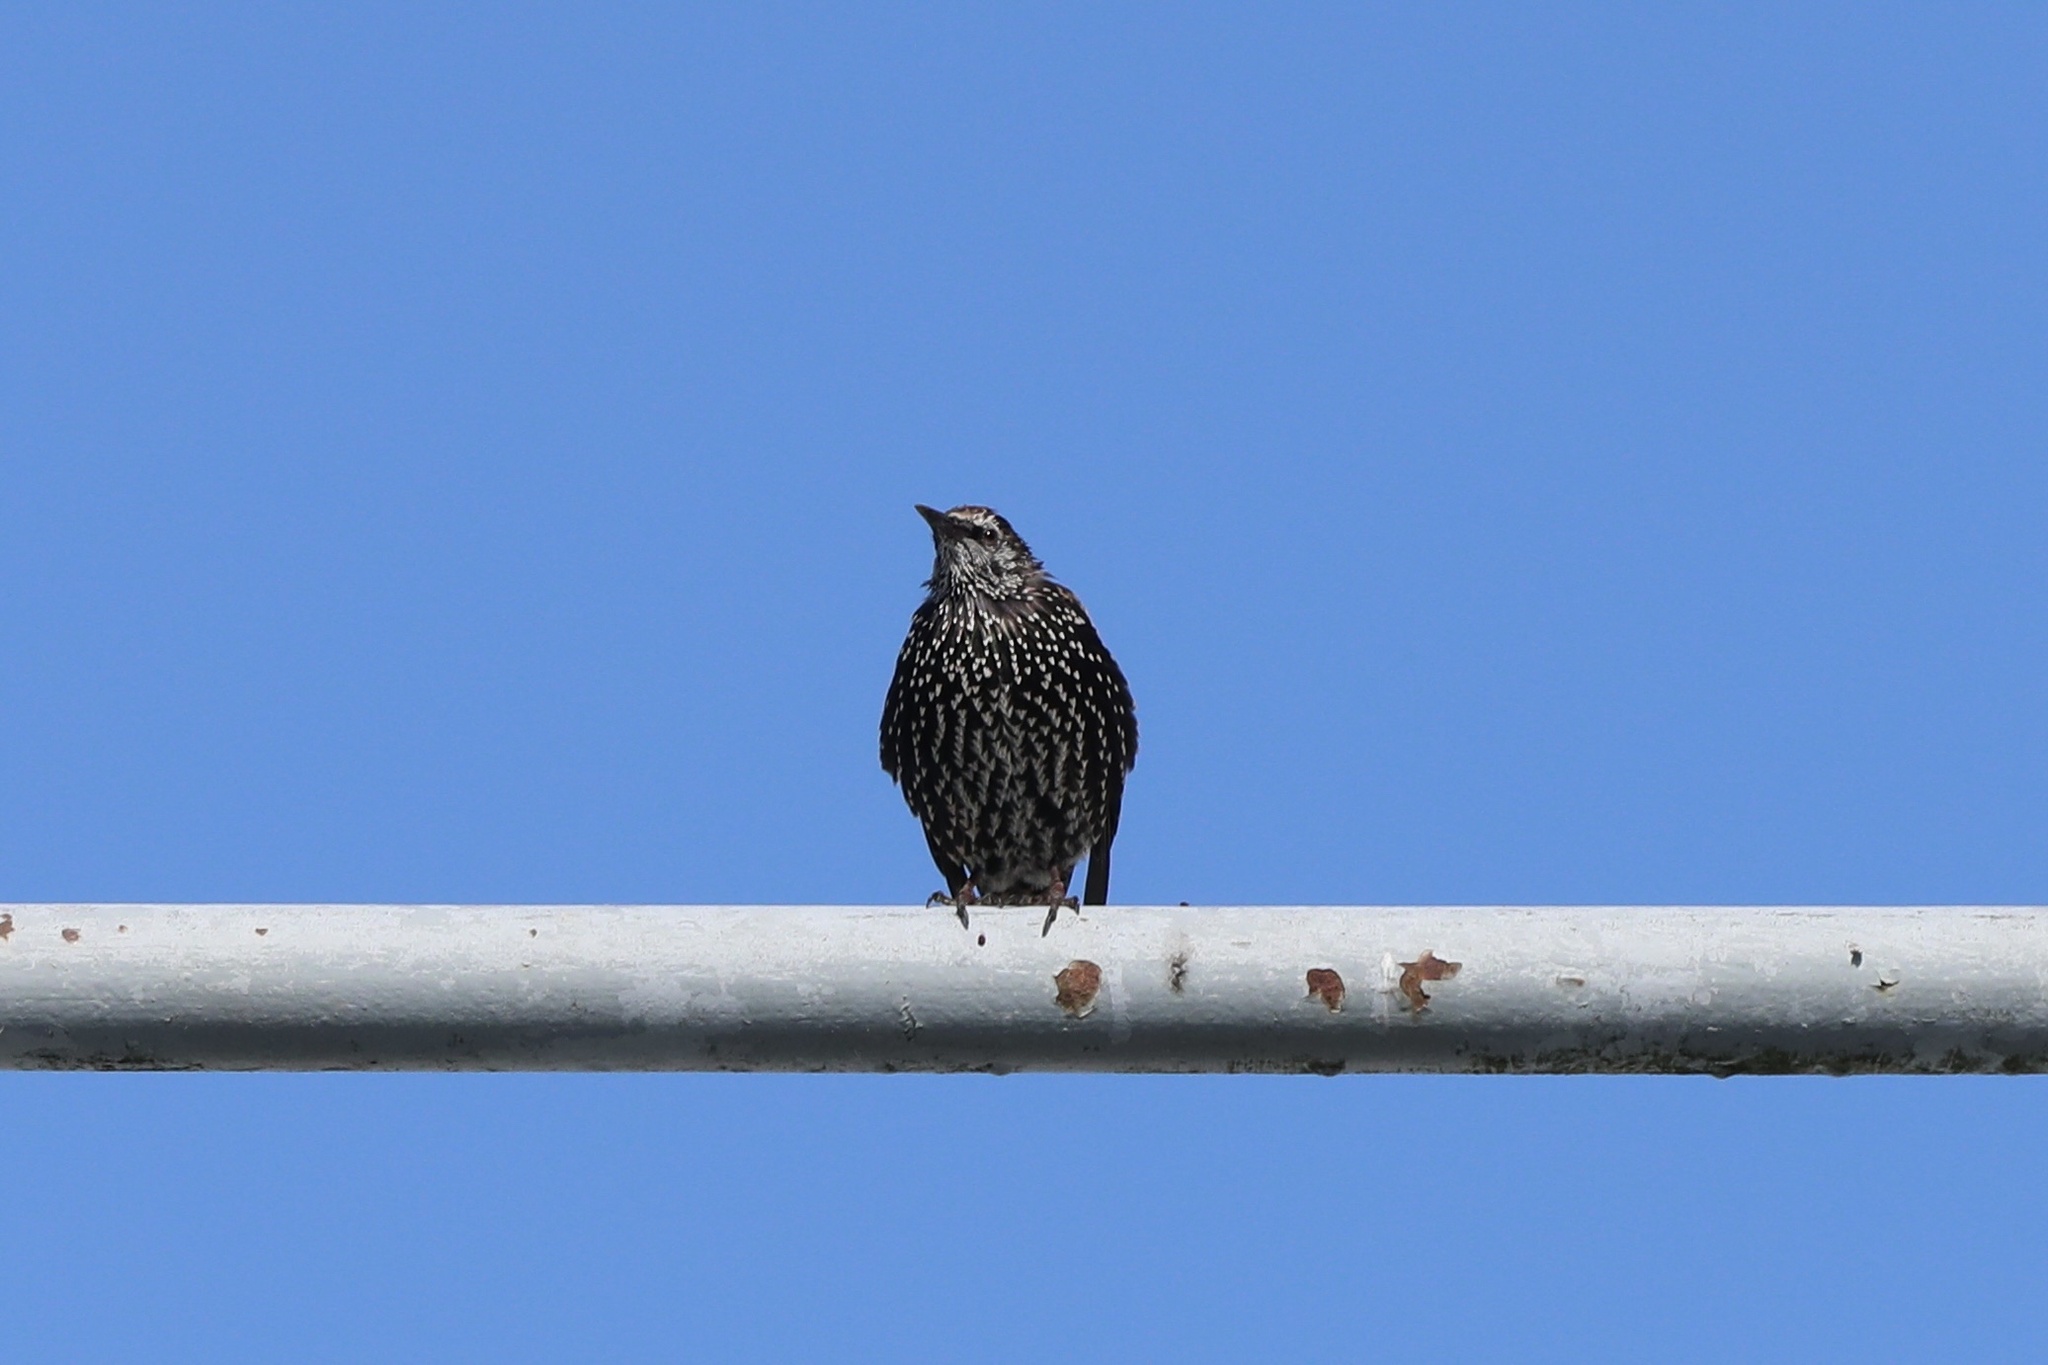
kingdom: Animalia
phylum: Chordata
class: Aves
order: Passeriformes
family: Sturnidae
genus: Sturnus
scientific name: Sturnus vulgaris
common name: Common starling
